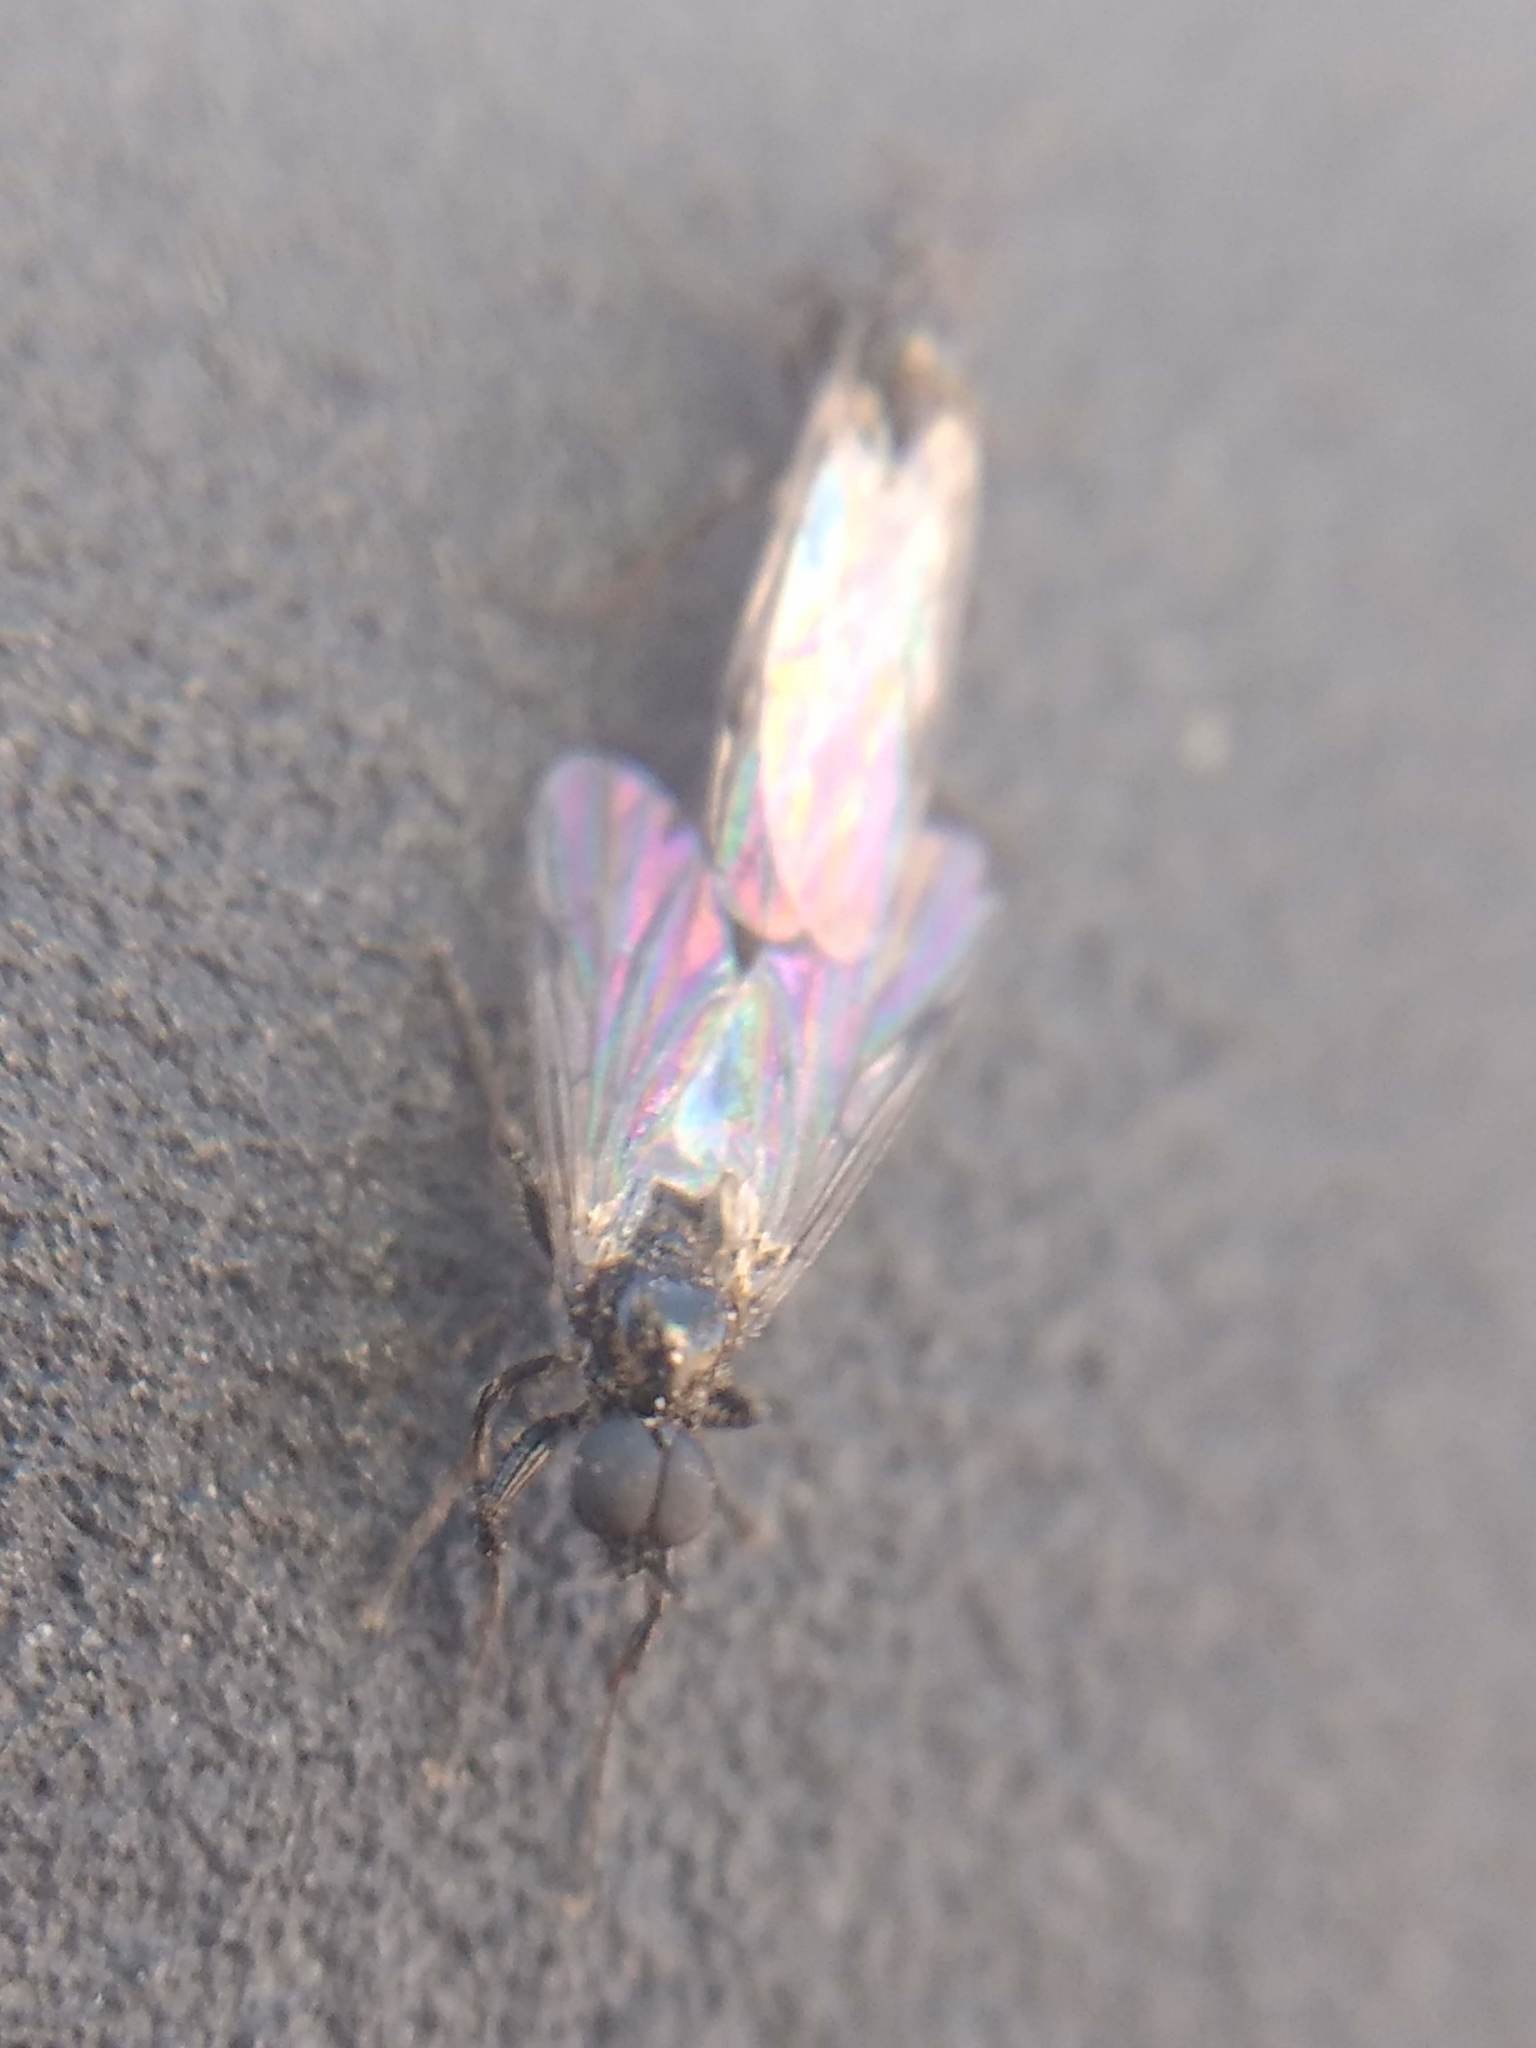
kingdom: Animalia
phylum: Arthropoda
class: Insecta
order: Diptera
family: Bibionidae
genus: Bibiodes
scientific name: Bibiodes halteralis
